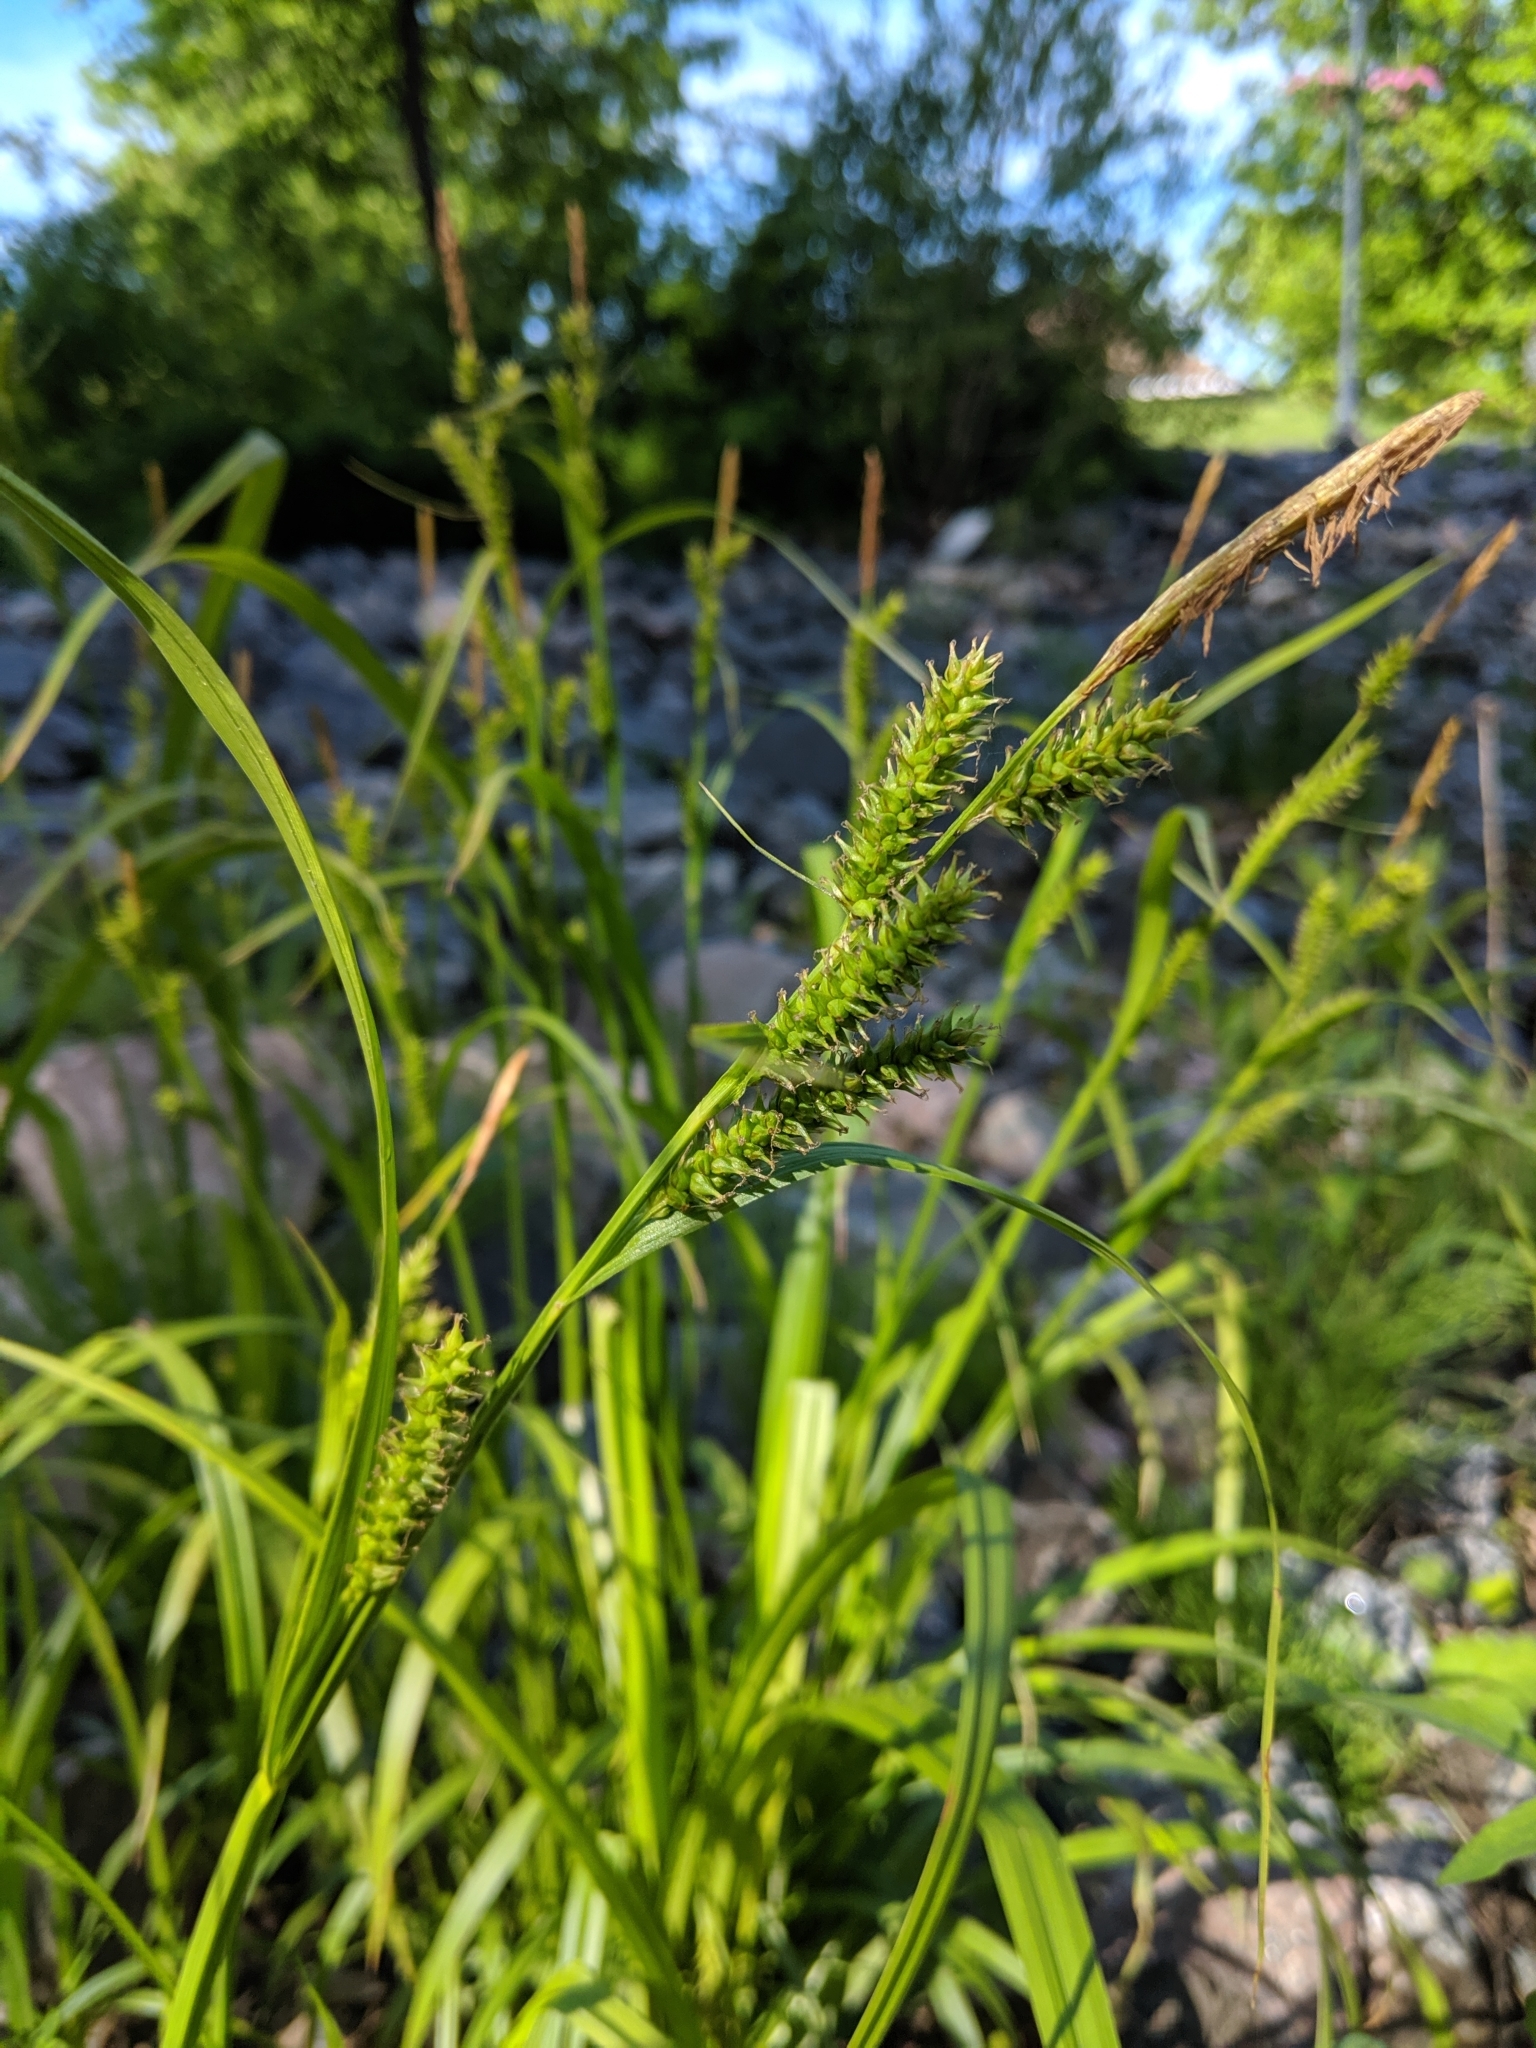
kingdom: Plantae
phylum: Tracheophyta
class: Liliopsida
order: Poales
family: Cyperaceae
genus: Carex
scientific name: Carex scabrata
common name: Eastern rough sedge
